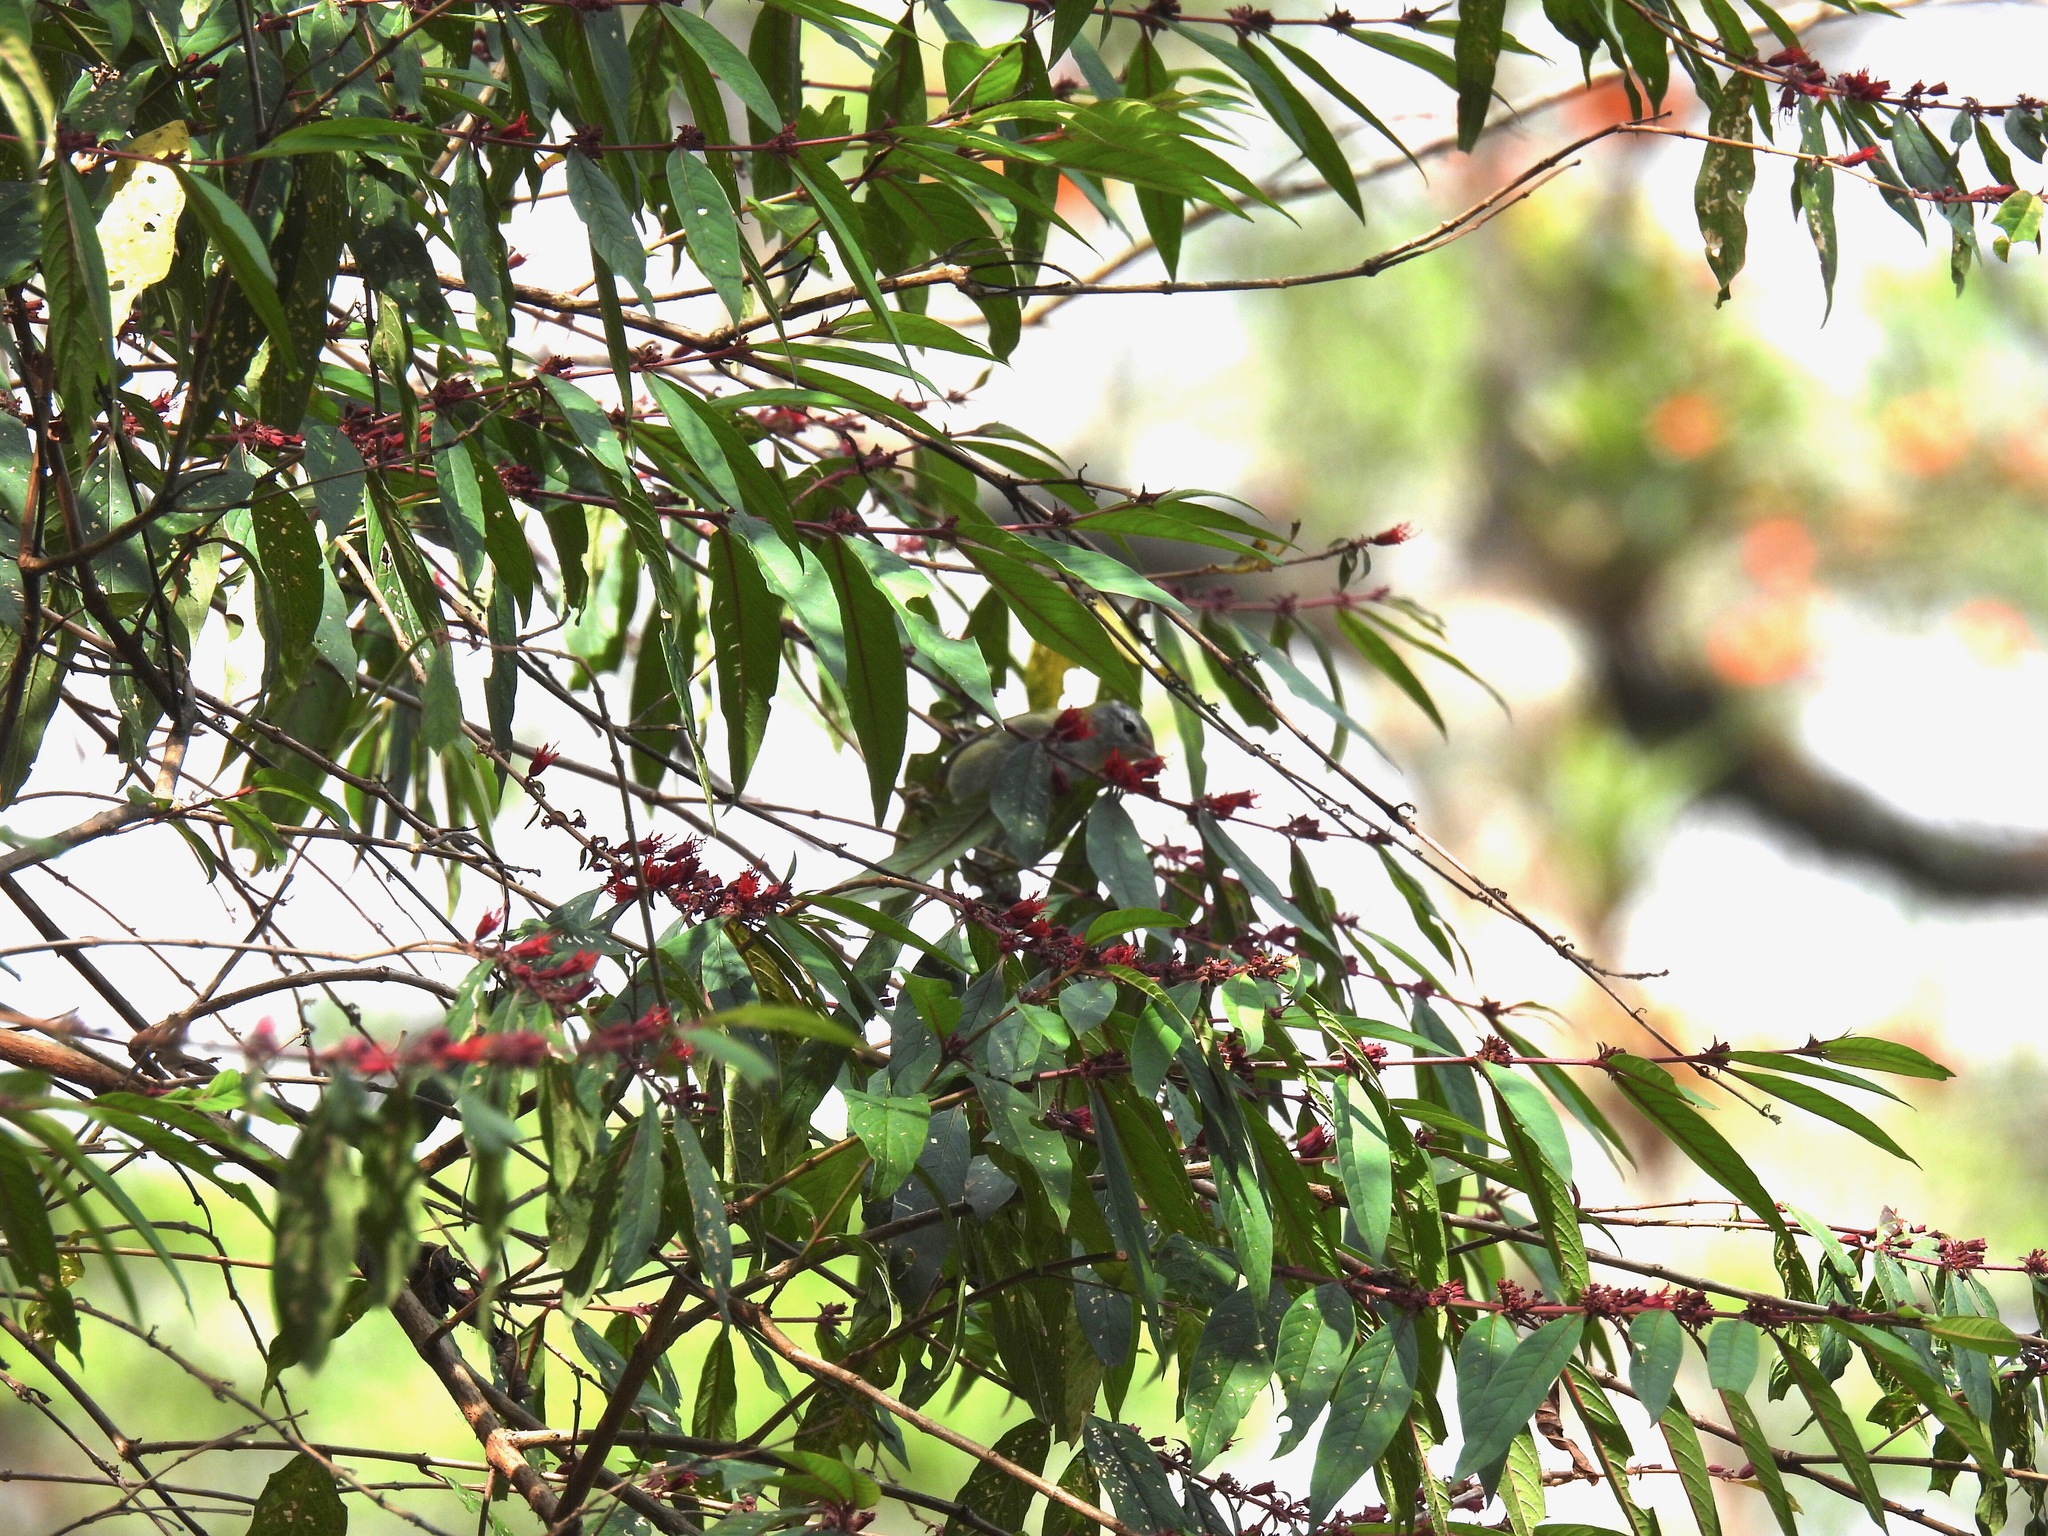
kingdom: Animalia
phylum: Chordata
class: Aves
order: Passeriformes
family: Parulidae
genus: Leiothlypis
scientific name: Leiothlypis peregrina
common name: Tennessee warbler
